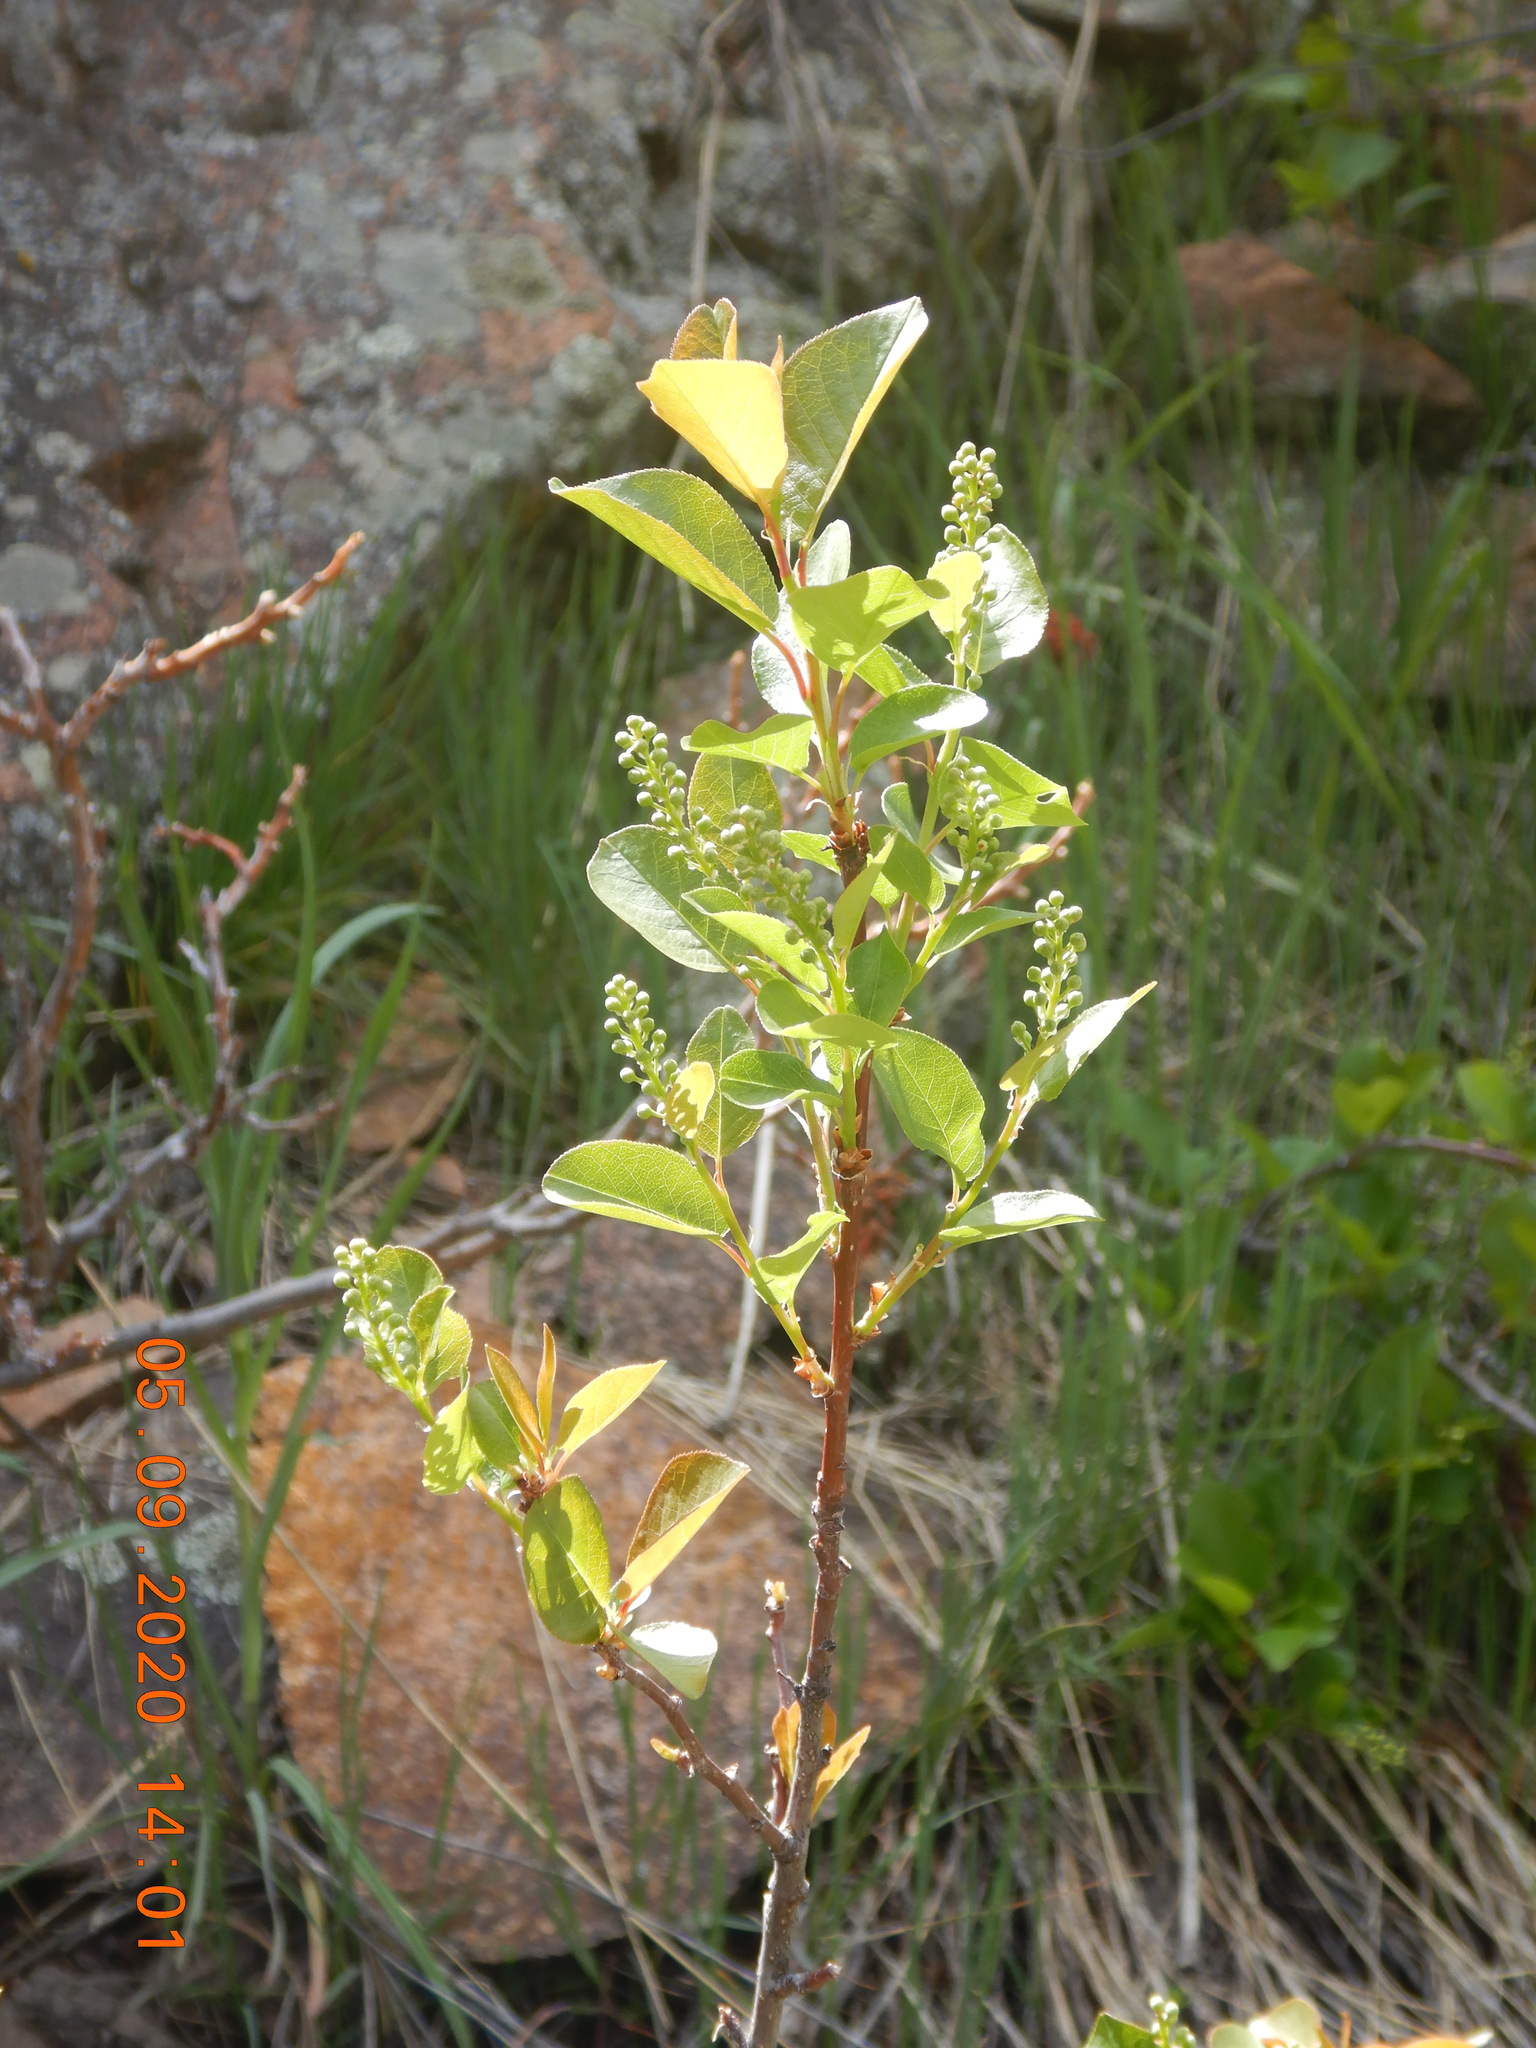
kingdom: Plantae
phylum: Tracheophyta
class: Magnoliopsida
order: Rosales
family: Rosaceae
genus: Prunus
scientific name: Prunus virginiana
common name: Chokecherry
